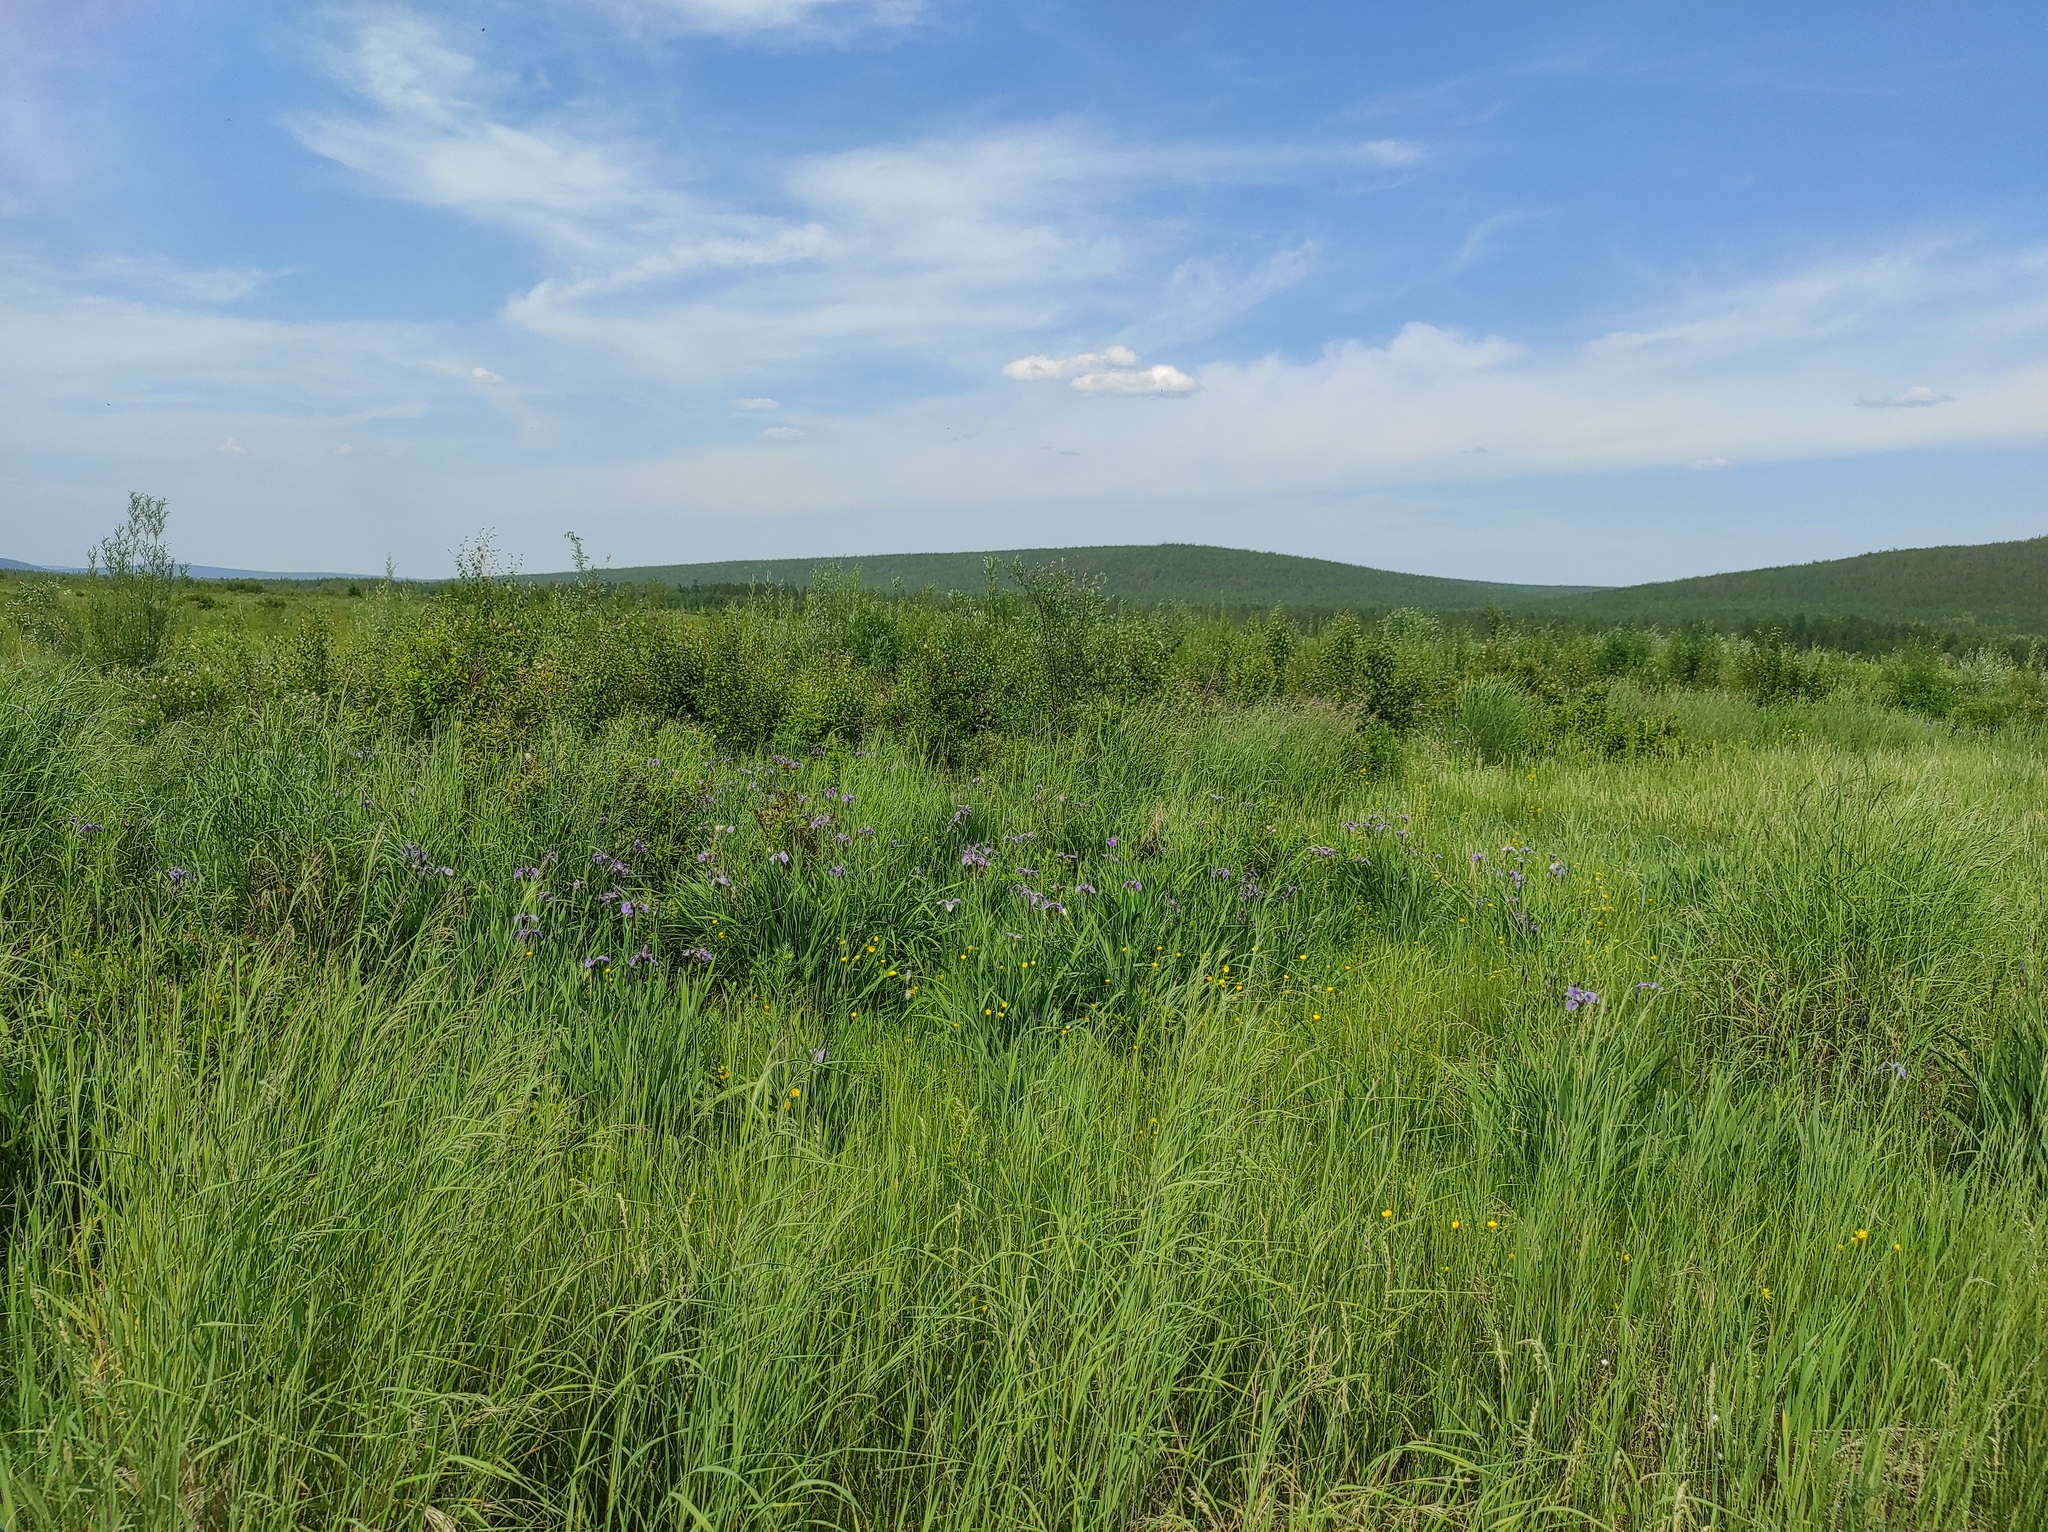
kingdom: Plantae
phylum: Tracheophyta
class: Liliopsida
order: Asparagales
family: Iridaceae
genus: Iris
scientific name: Iris setosa
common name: Arctic blue flag
